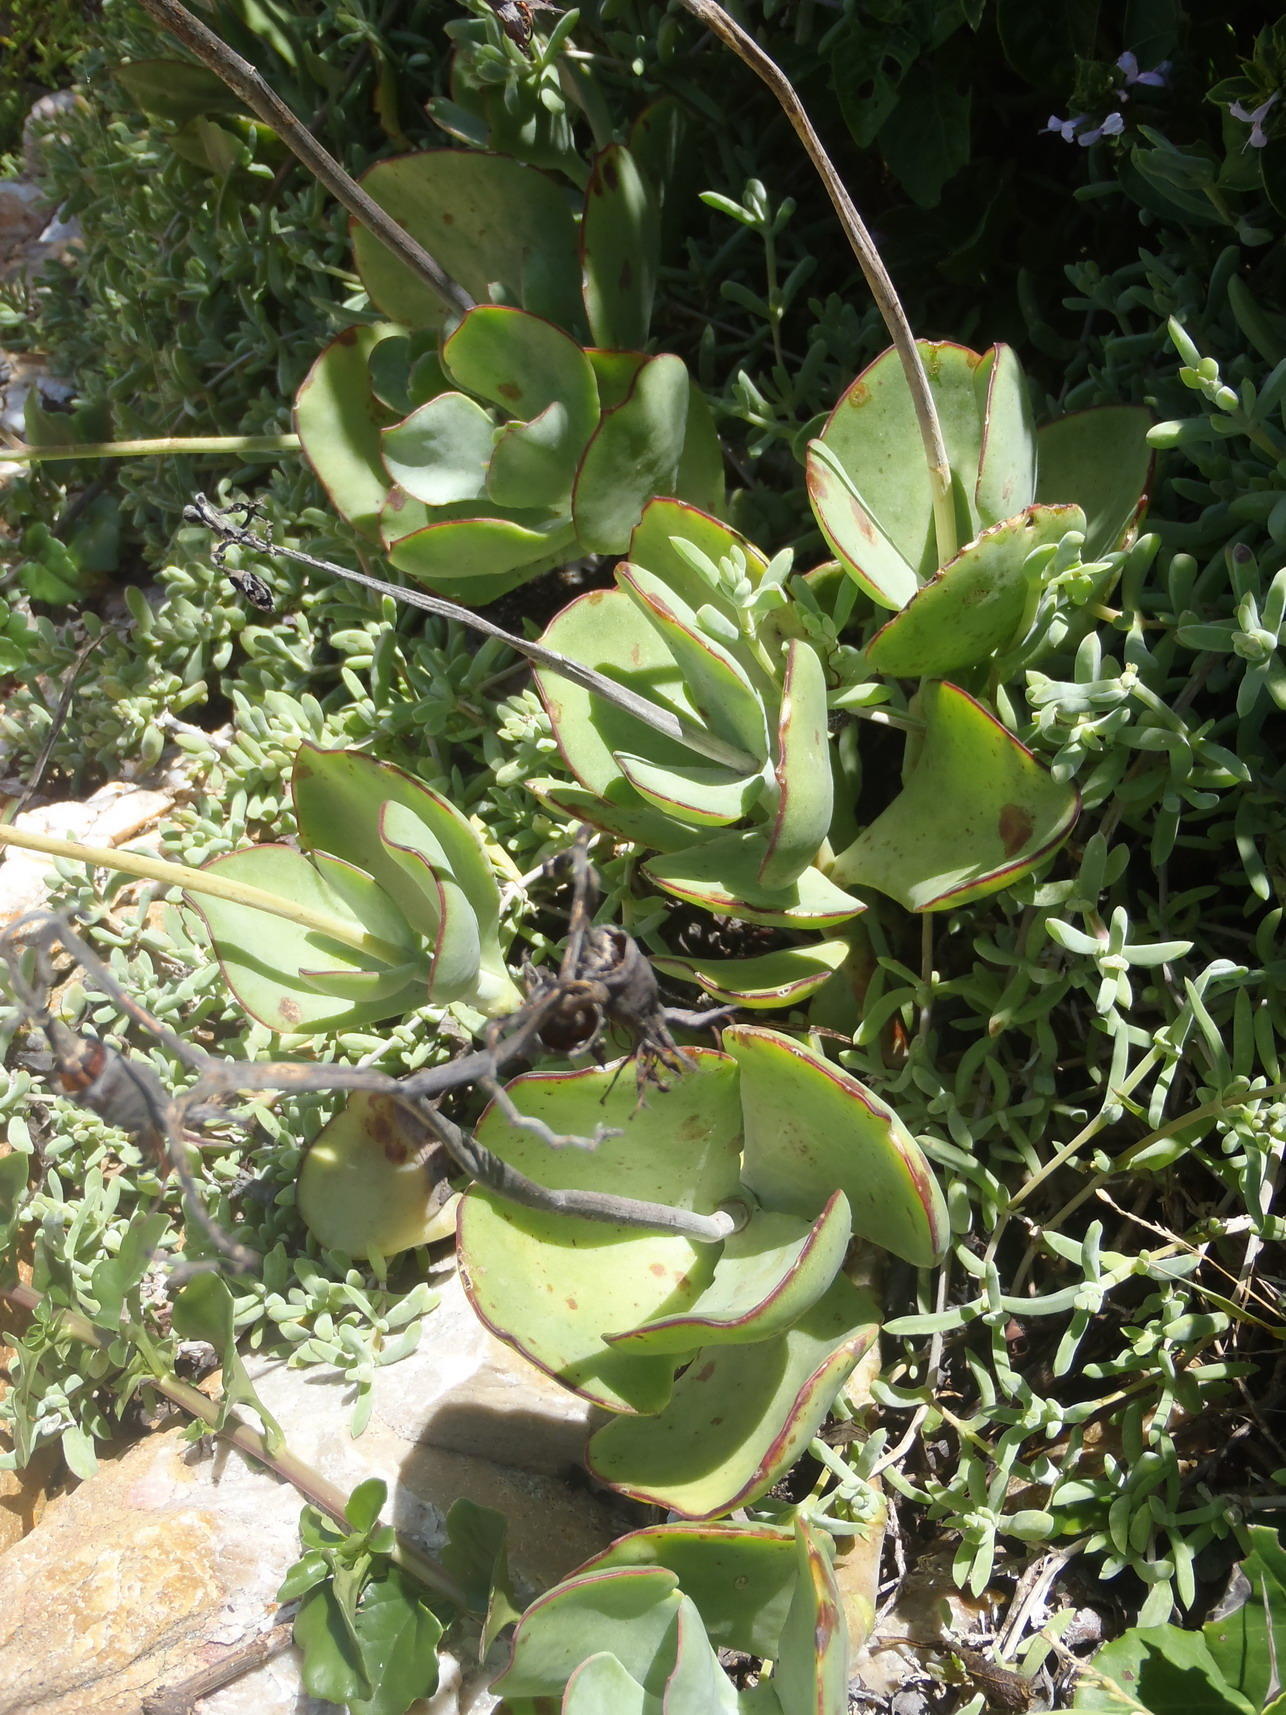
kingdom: Plantae
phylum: Tracheophyta
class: Magnoliopsida
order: Saxifragales
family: Crassulaceae
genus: Cotyledon
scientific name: Cotyledon orbiculata
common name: Pig's ear
